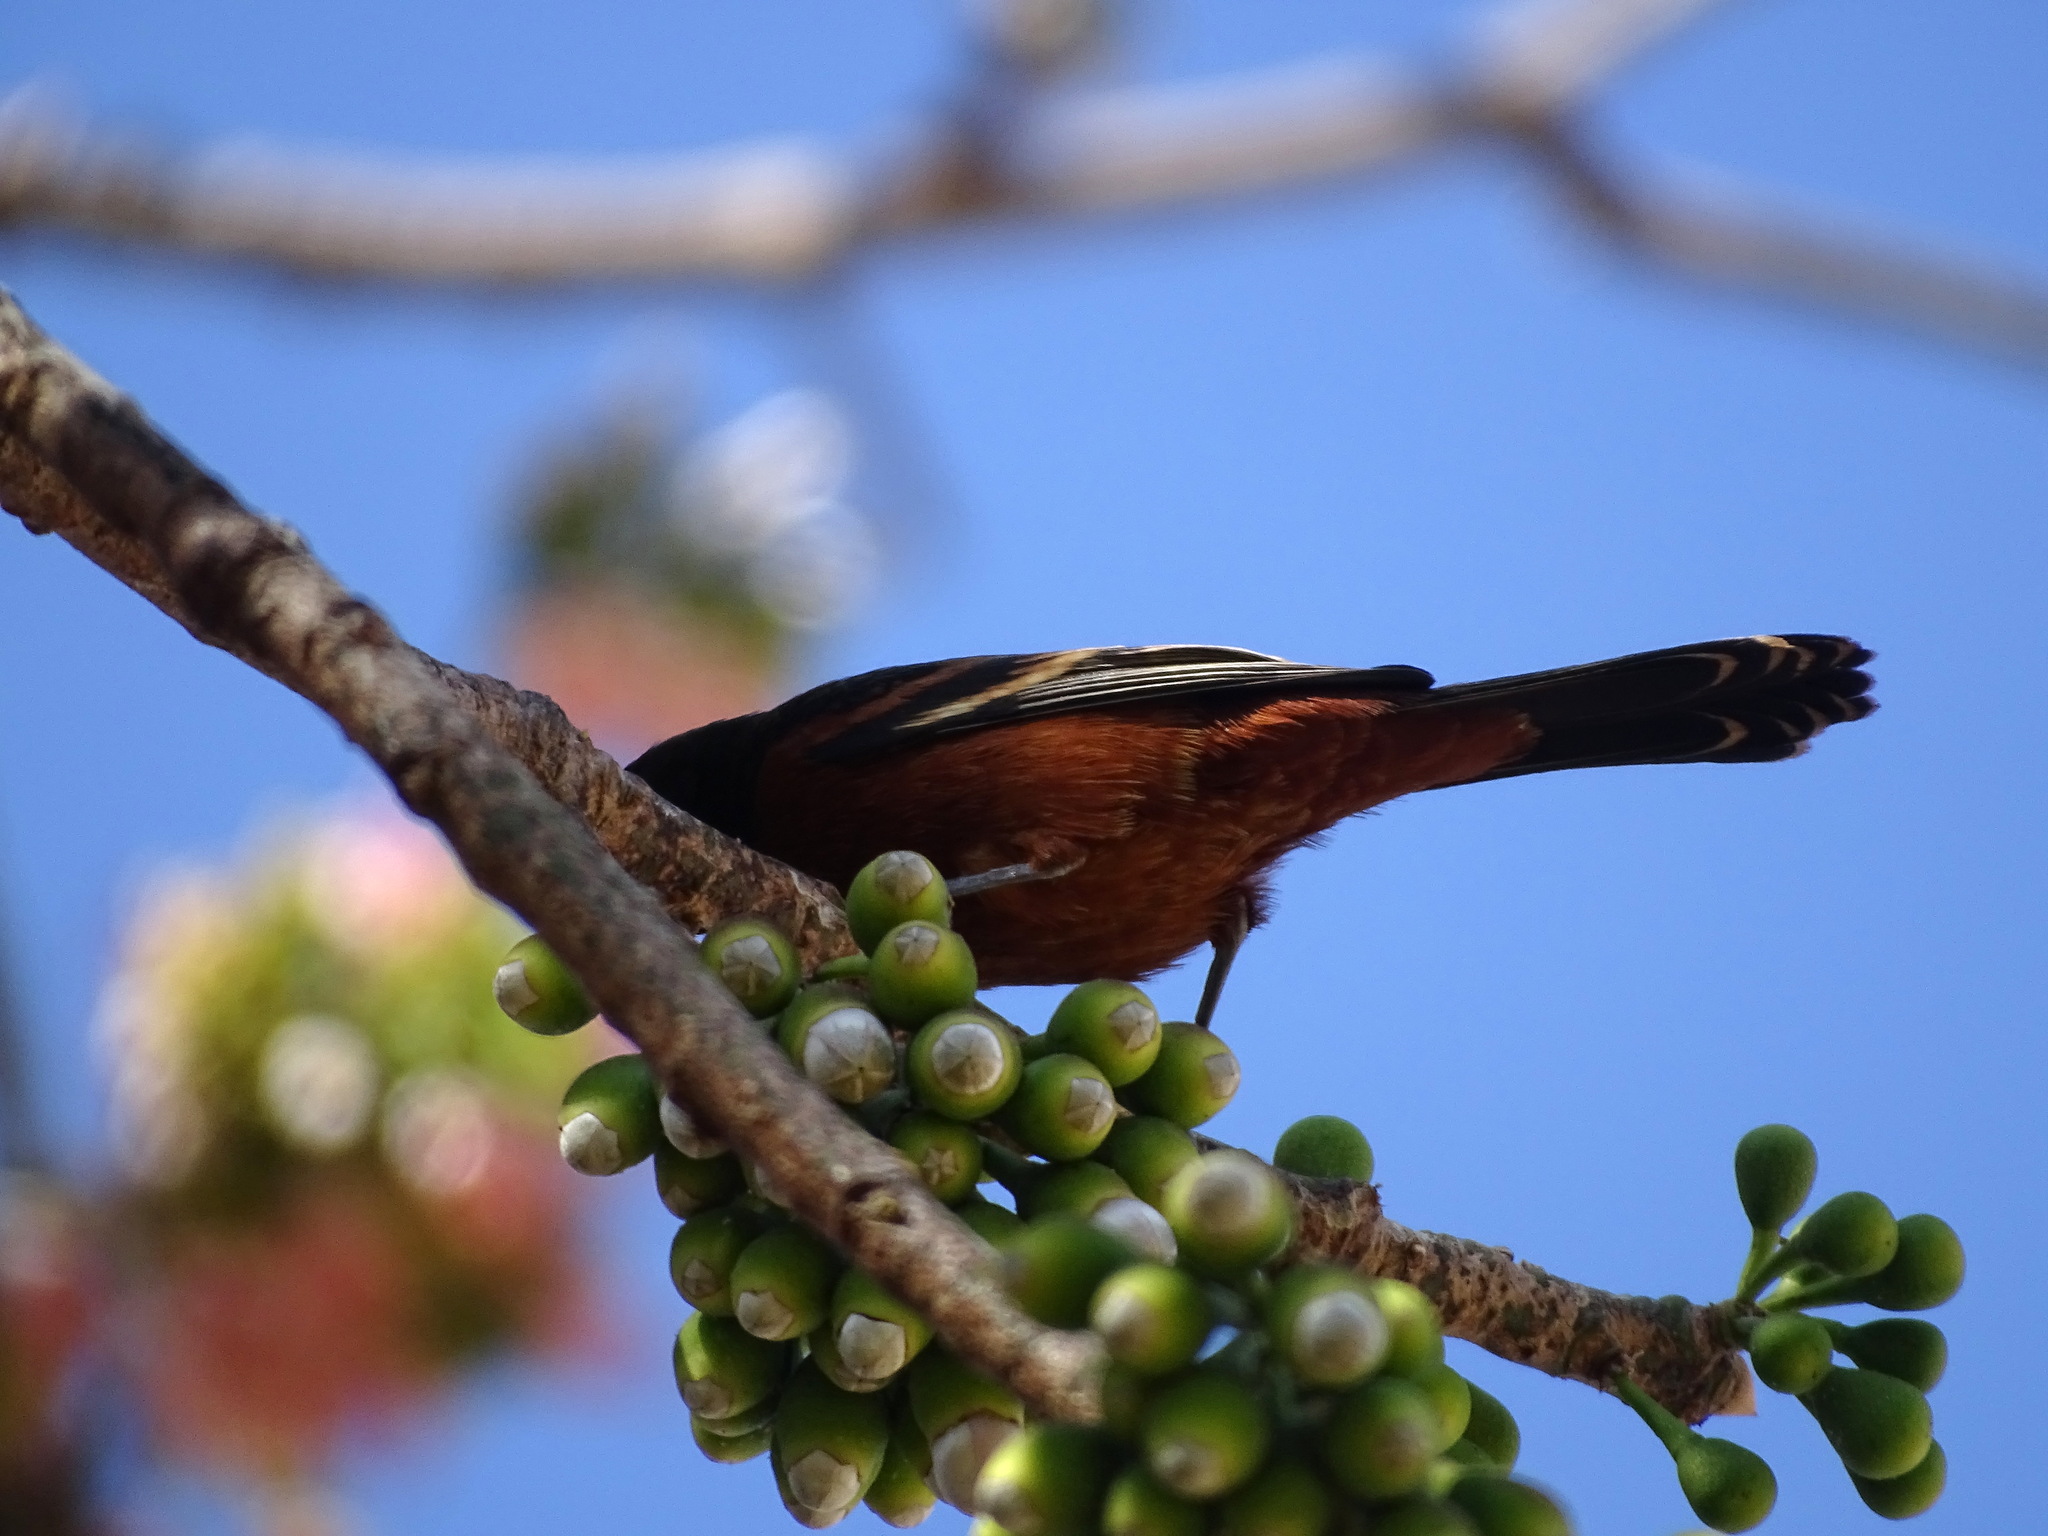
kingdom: Animalia
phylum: Chordata
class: Aves
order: Passeriformes
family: Icteridae
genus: Icterus
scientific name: Icterus spurius
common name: Orchard oriole
